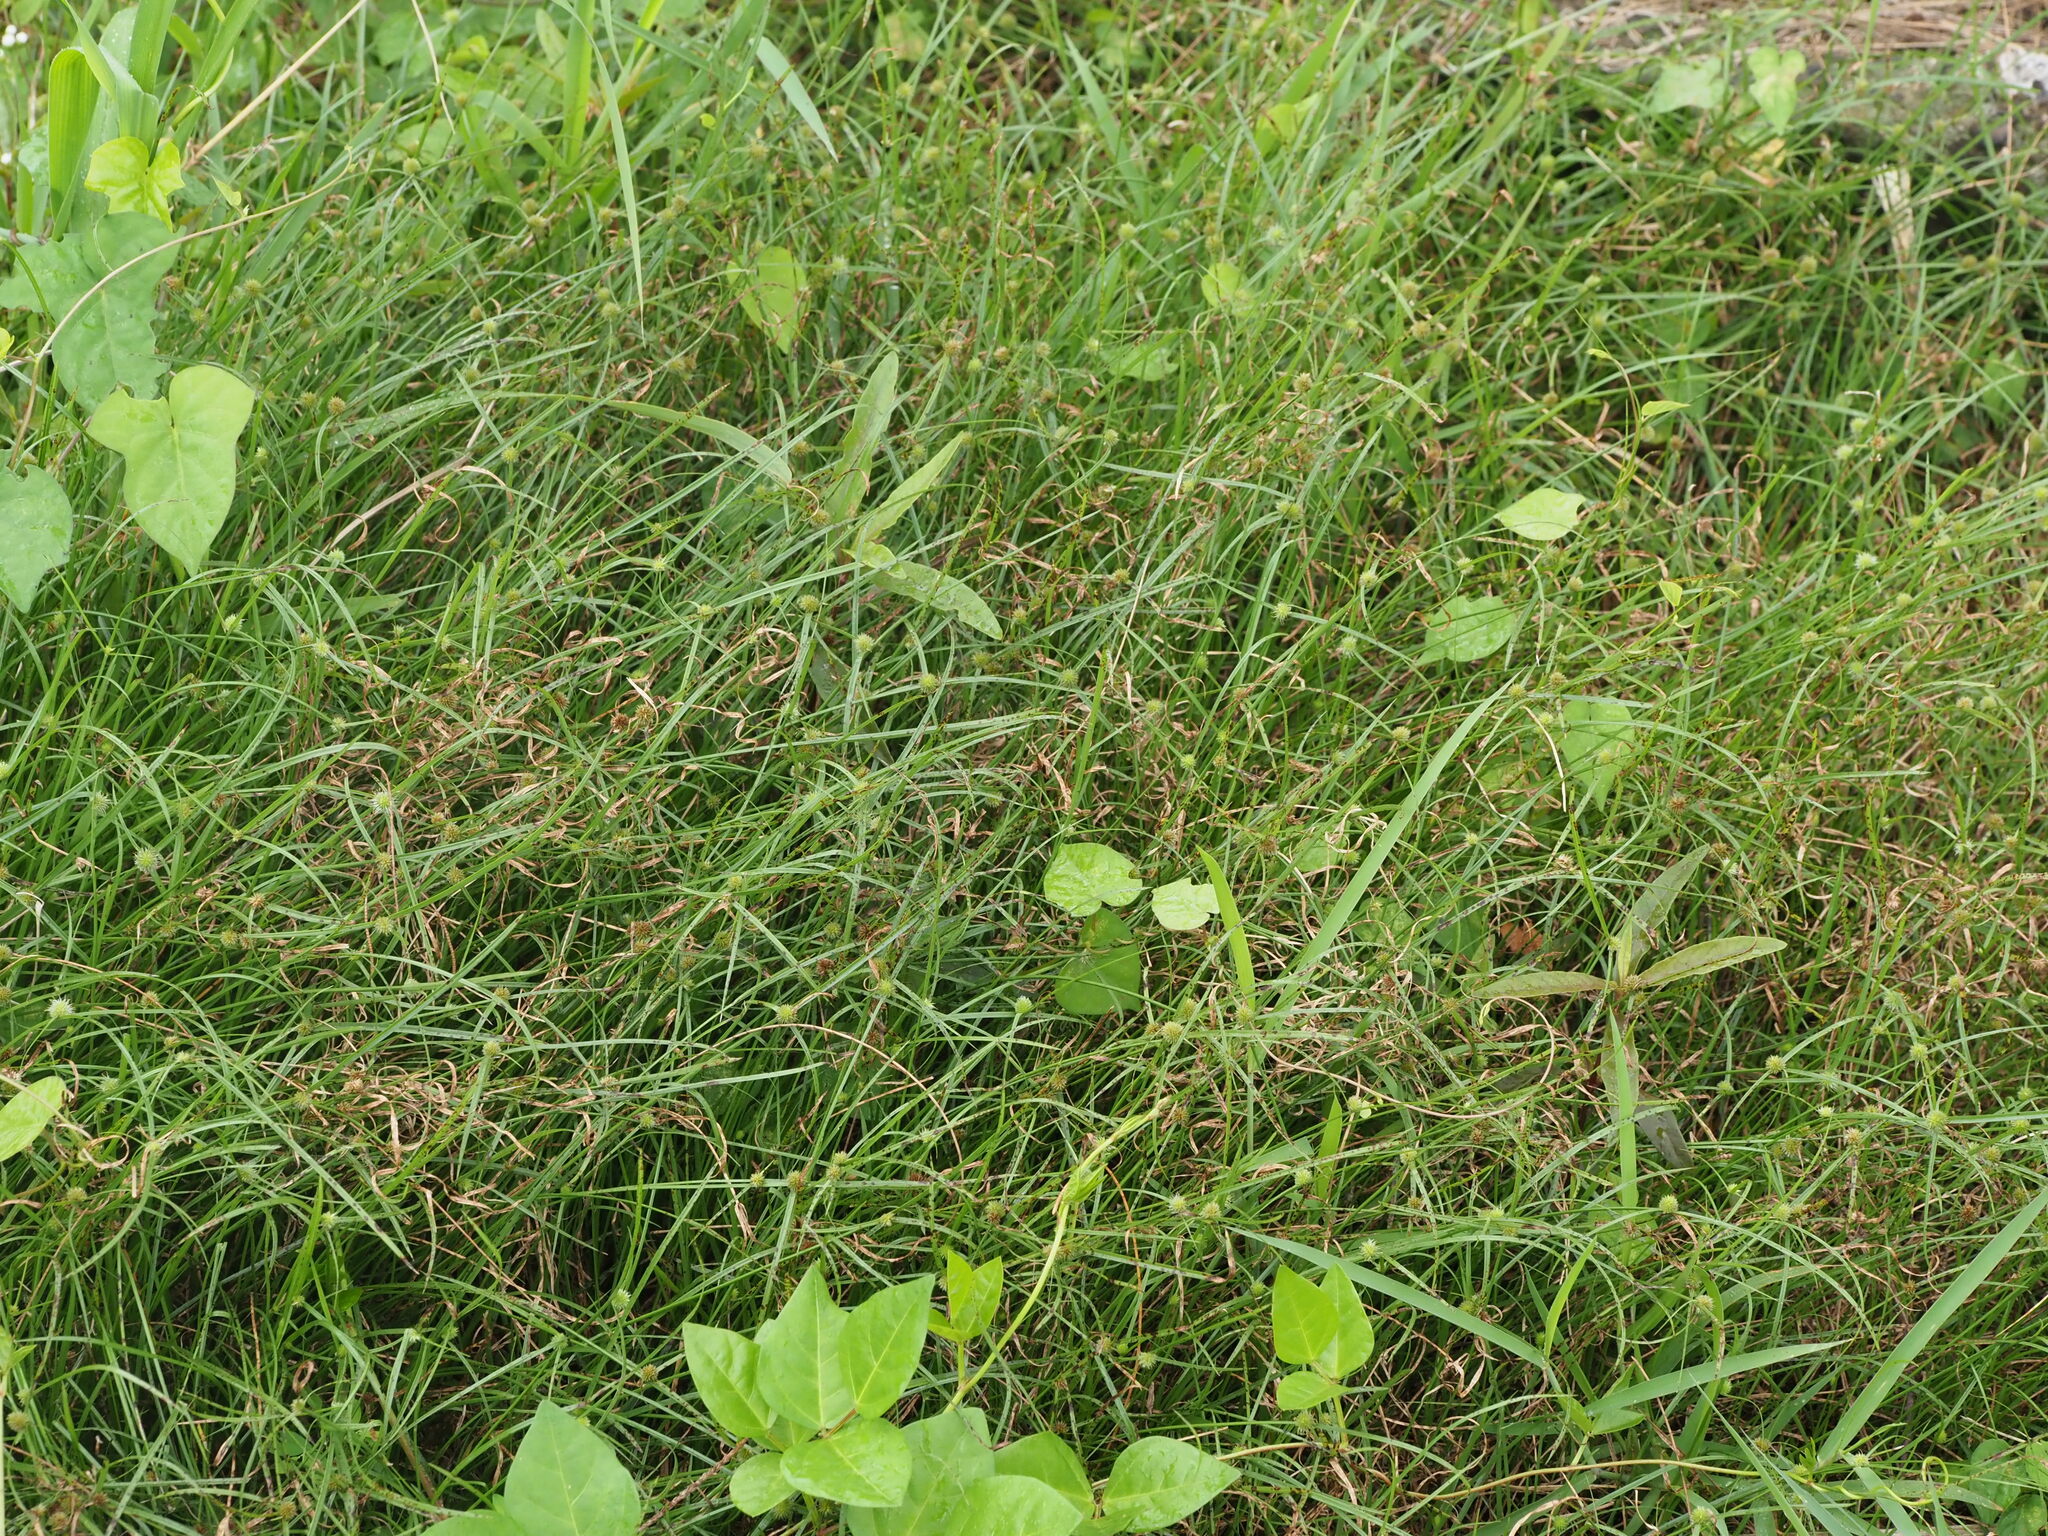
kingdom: Plantae
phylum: Tracheophyta
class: Liliopsida
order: Poales
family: Cyperaceae
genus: Cyperus
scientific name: Cyperus brevifolius
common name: Globe kyllinga
